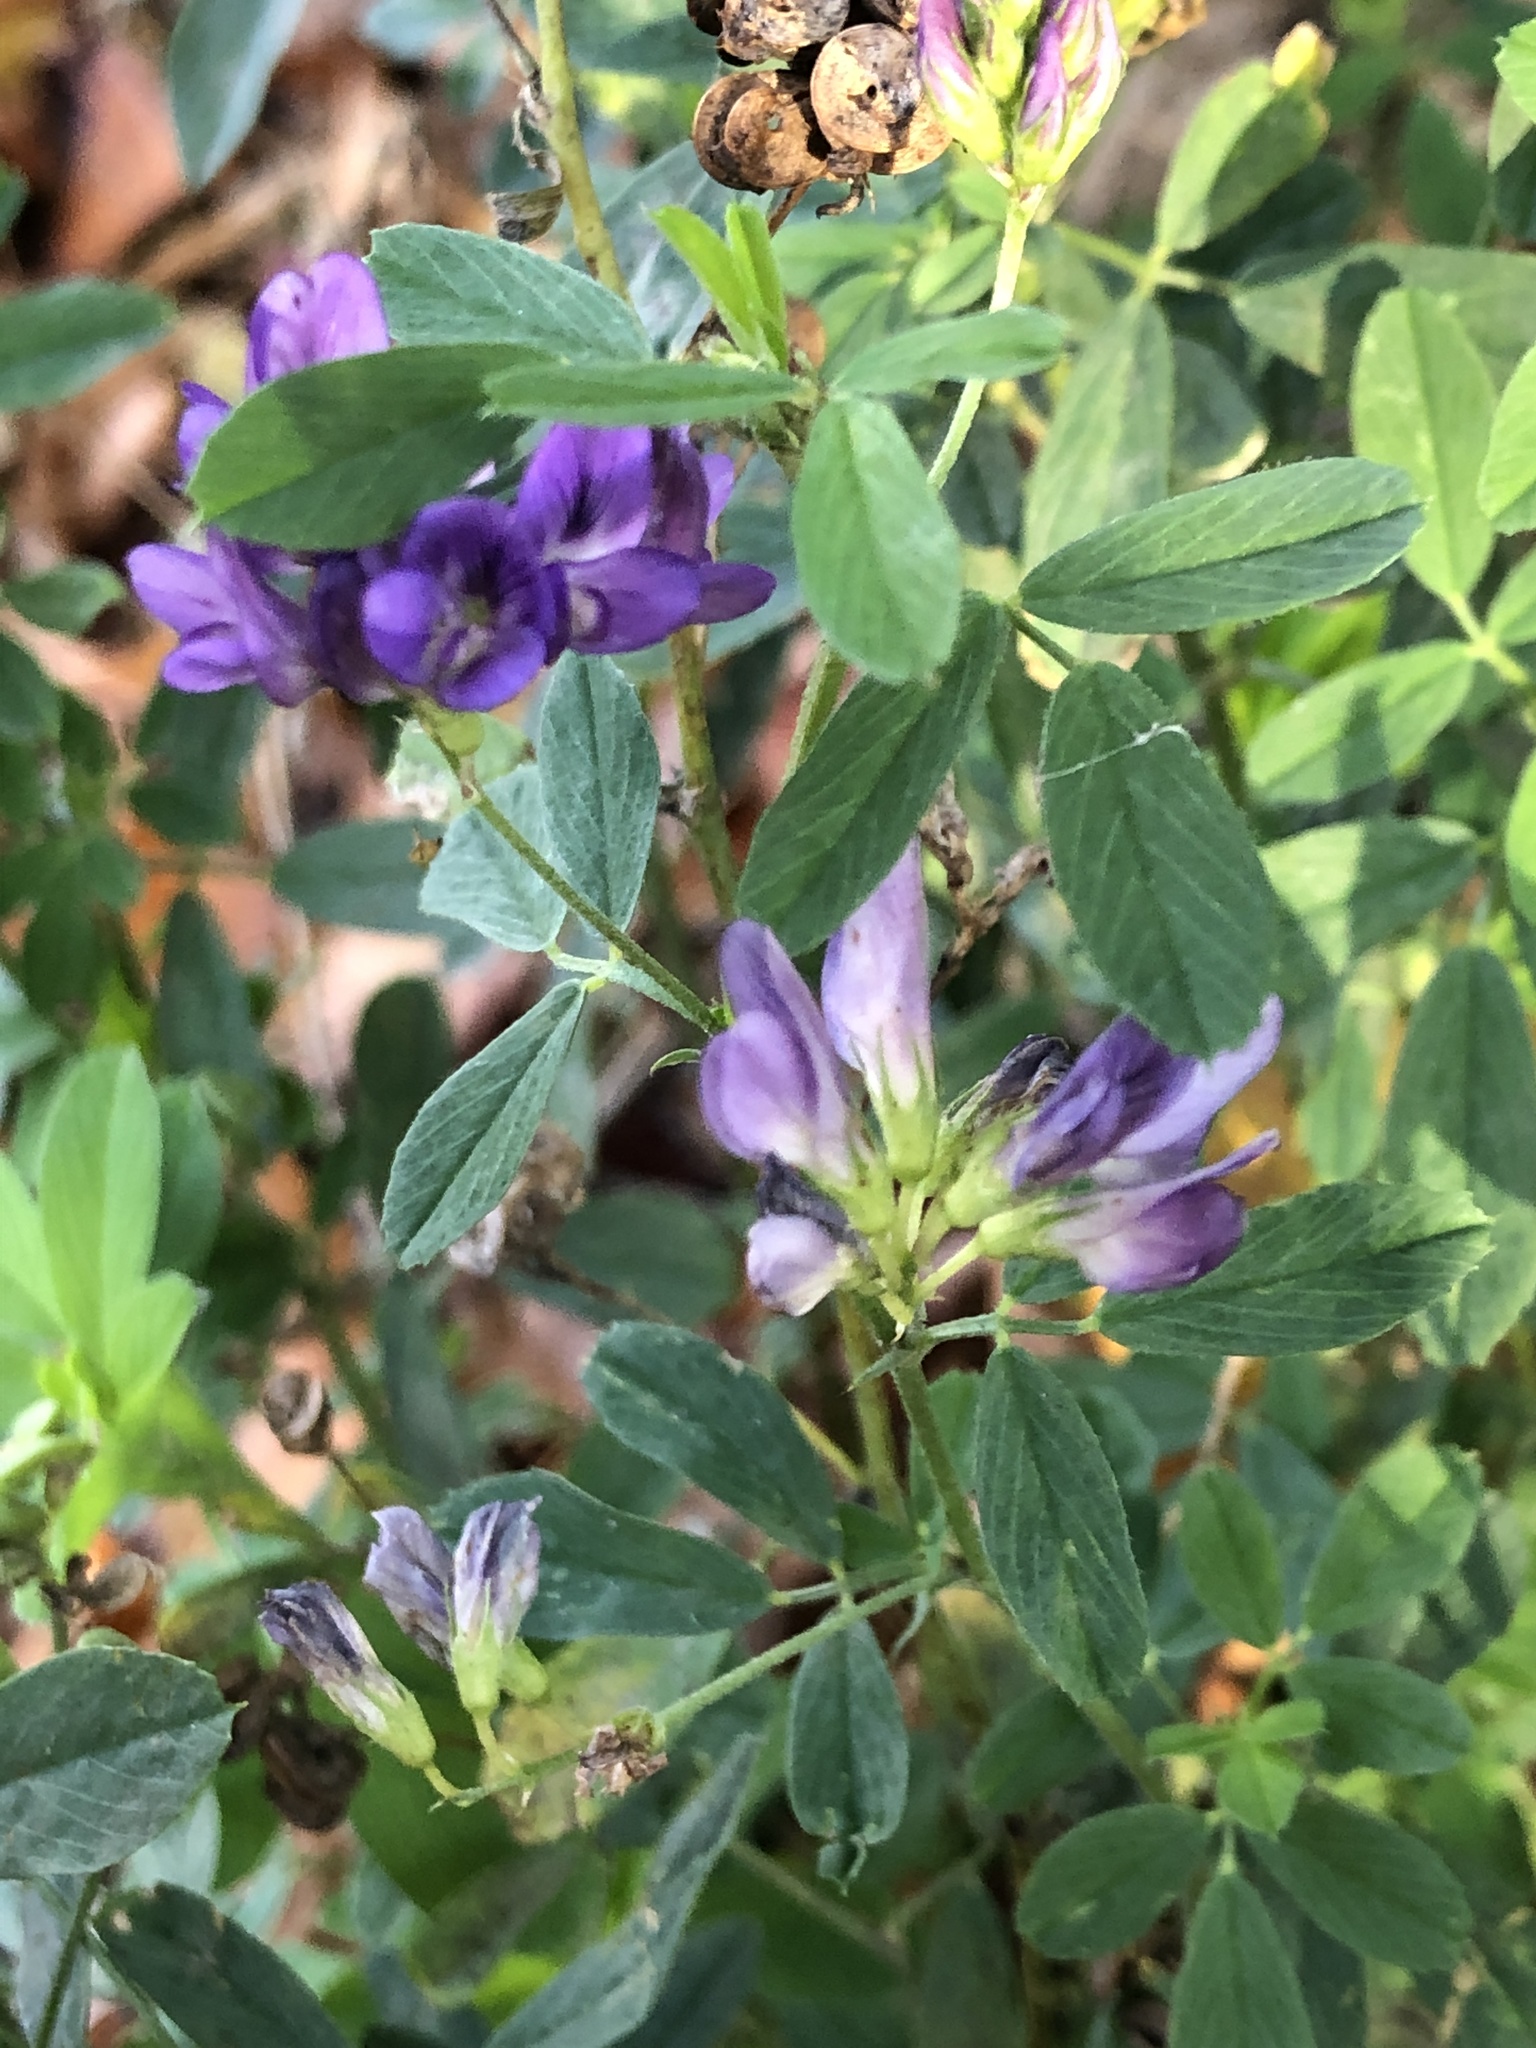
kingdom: Plantae
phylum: Tracheophyta
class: Magnoliopsida
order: Fabales
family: Fabaceae
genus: Medicago
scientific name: Medicago sativa
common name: Alfalfa
